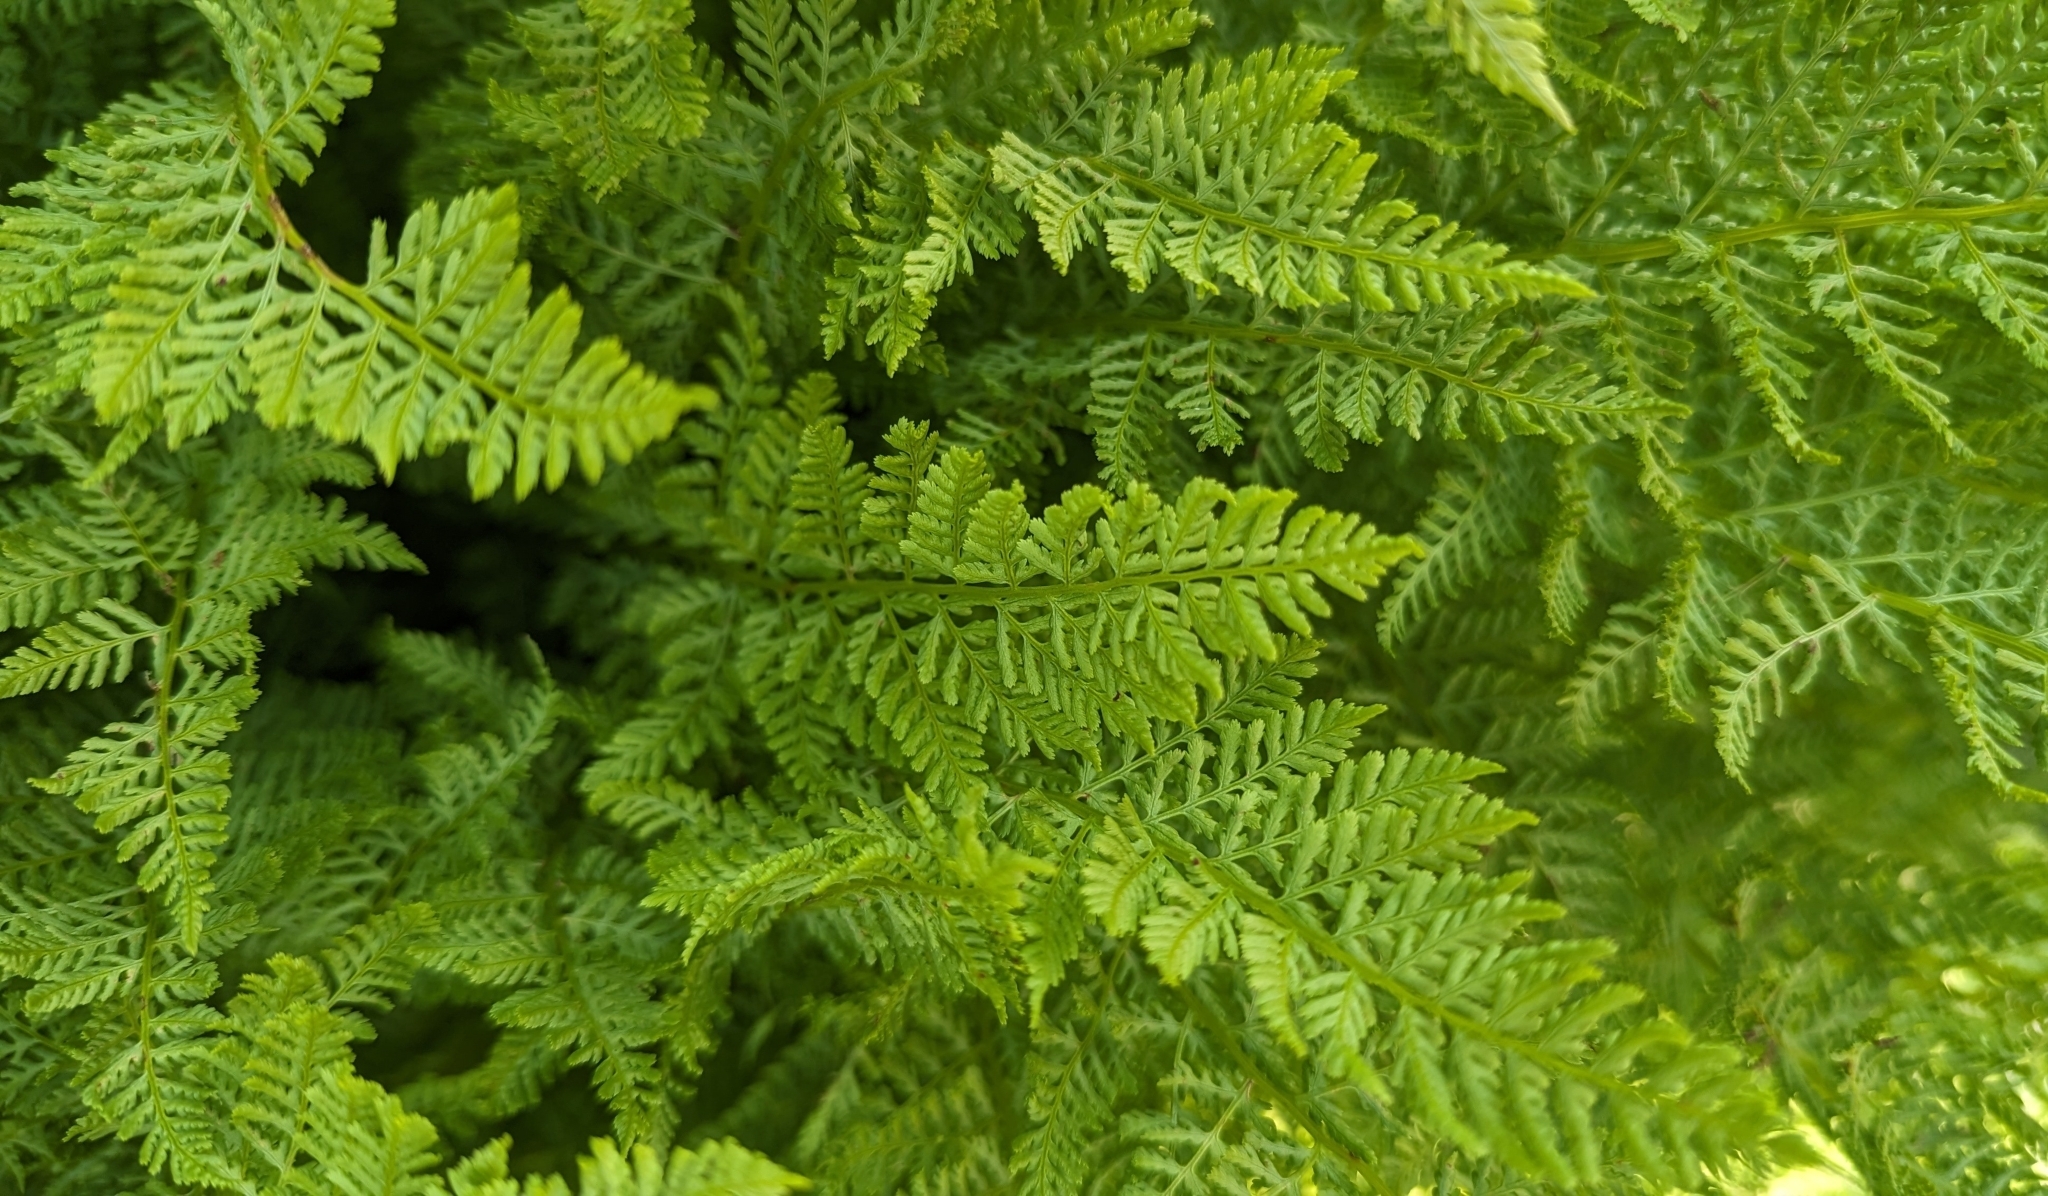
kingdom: Plantae
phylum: Tracheophyta
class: Polypodiopsida
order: Polypodiales
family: Athyriaceae
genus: Athyrium
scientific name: Athyrium americanum
